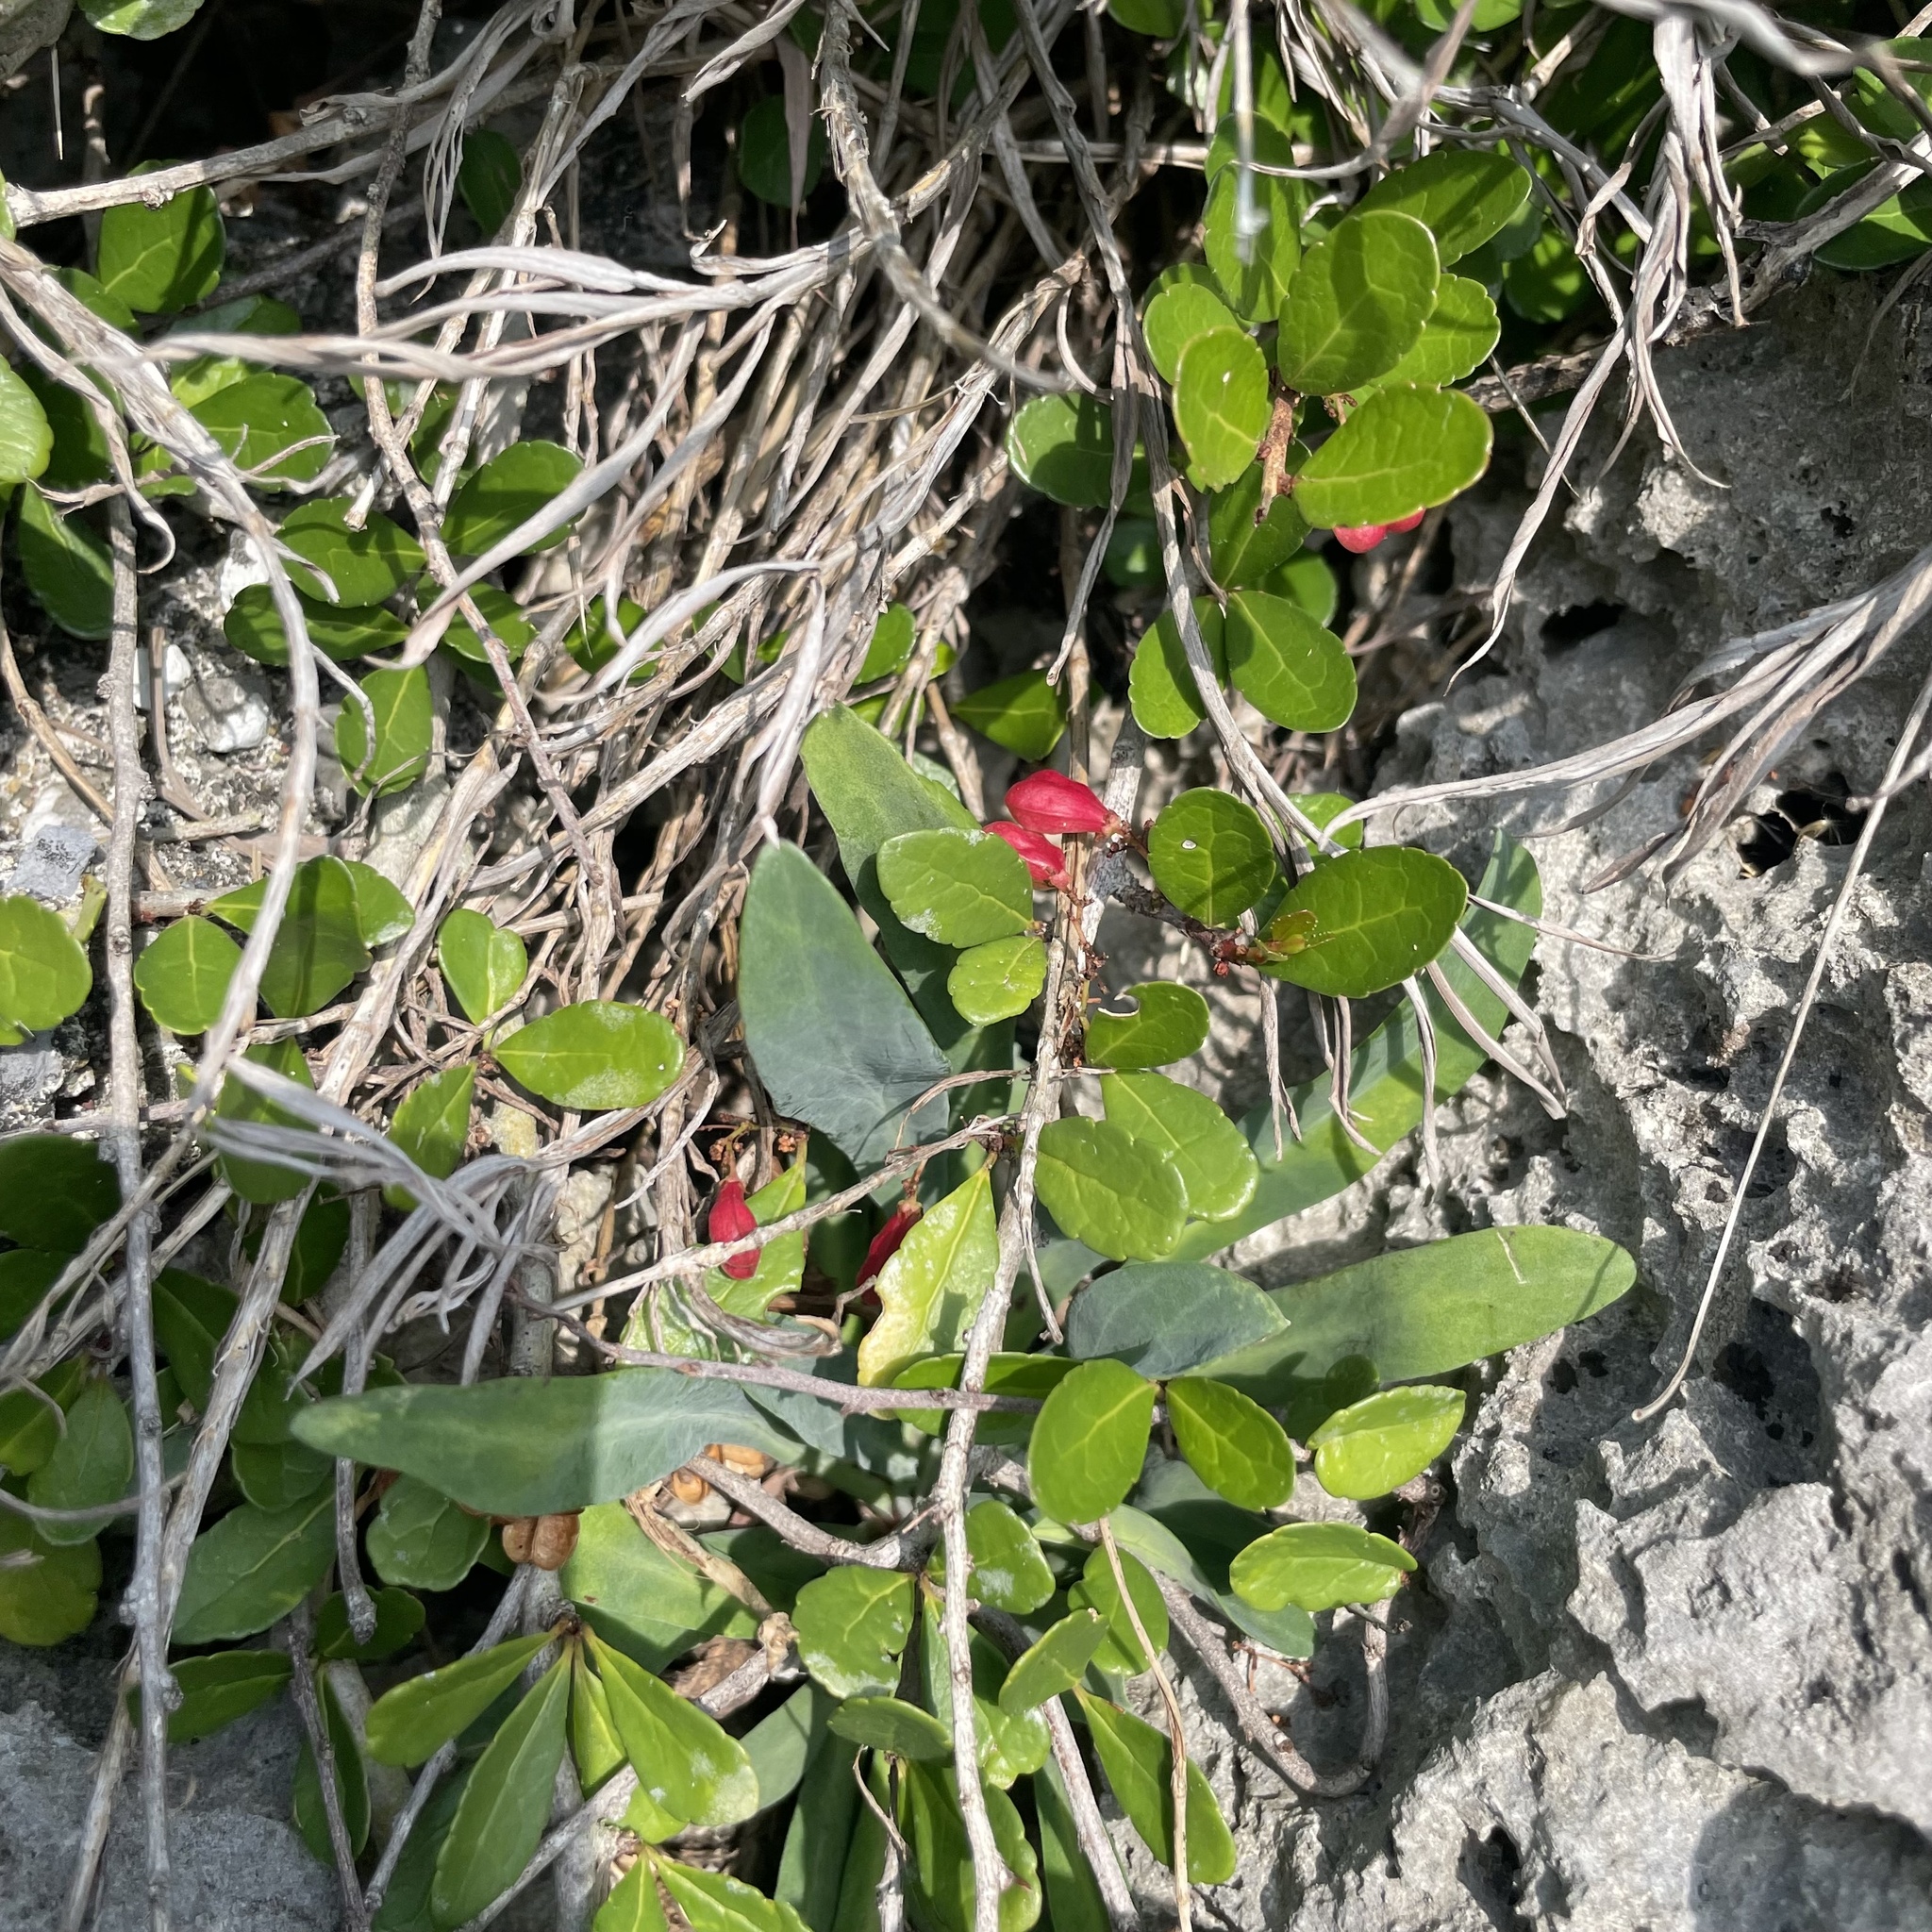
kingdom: Plantae
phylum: Tracheophyta
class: Magnoliopsida
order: Celastrales
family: Celastraceae
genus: Gymnosporia
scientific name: Gymnosporia diversifolia
